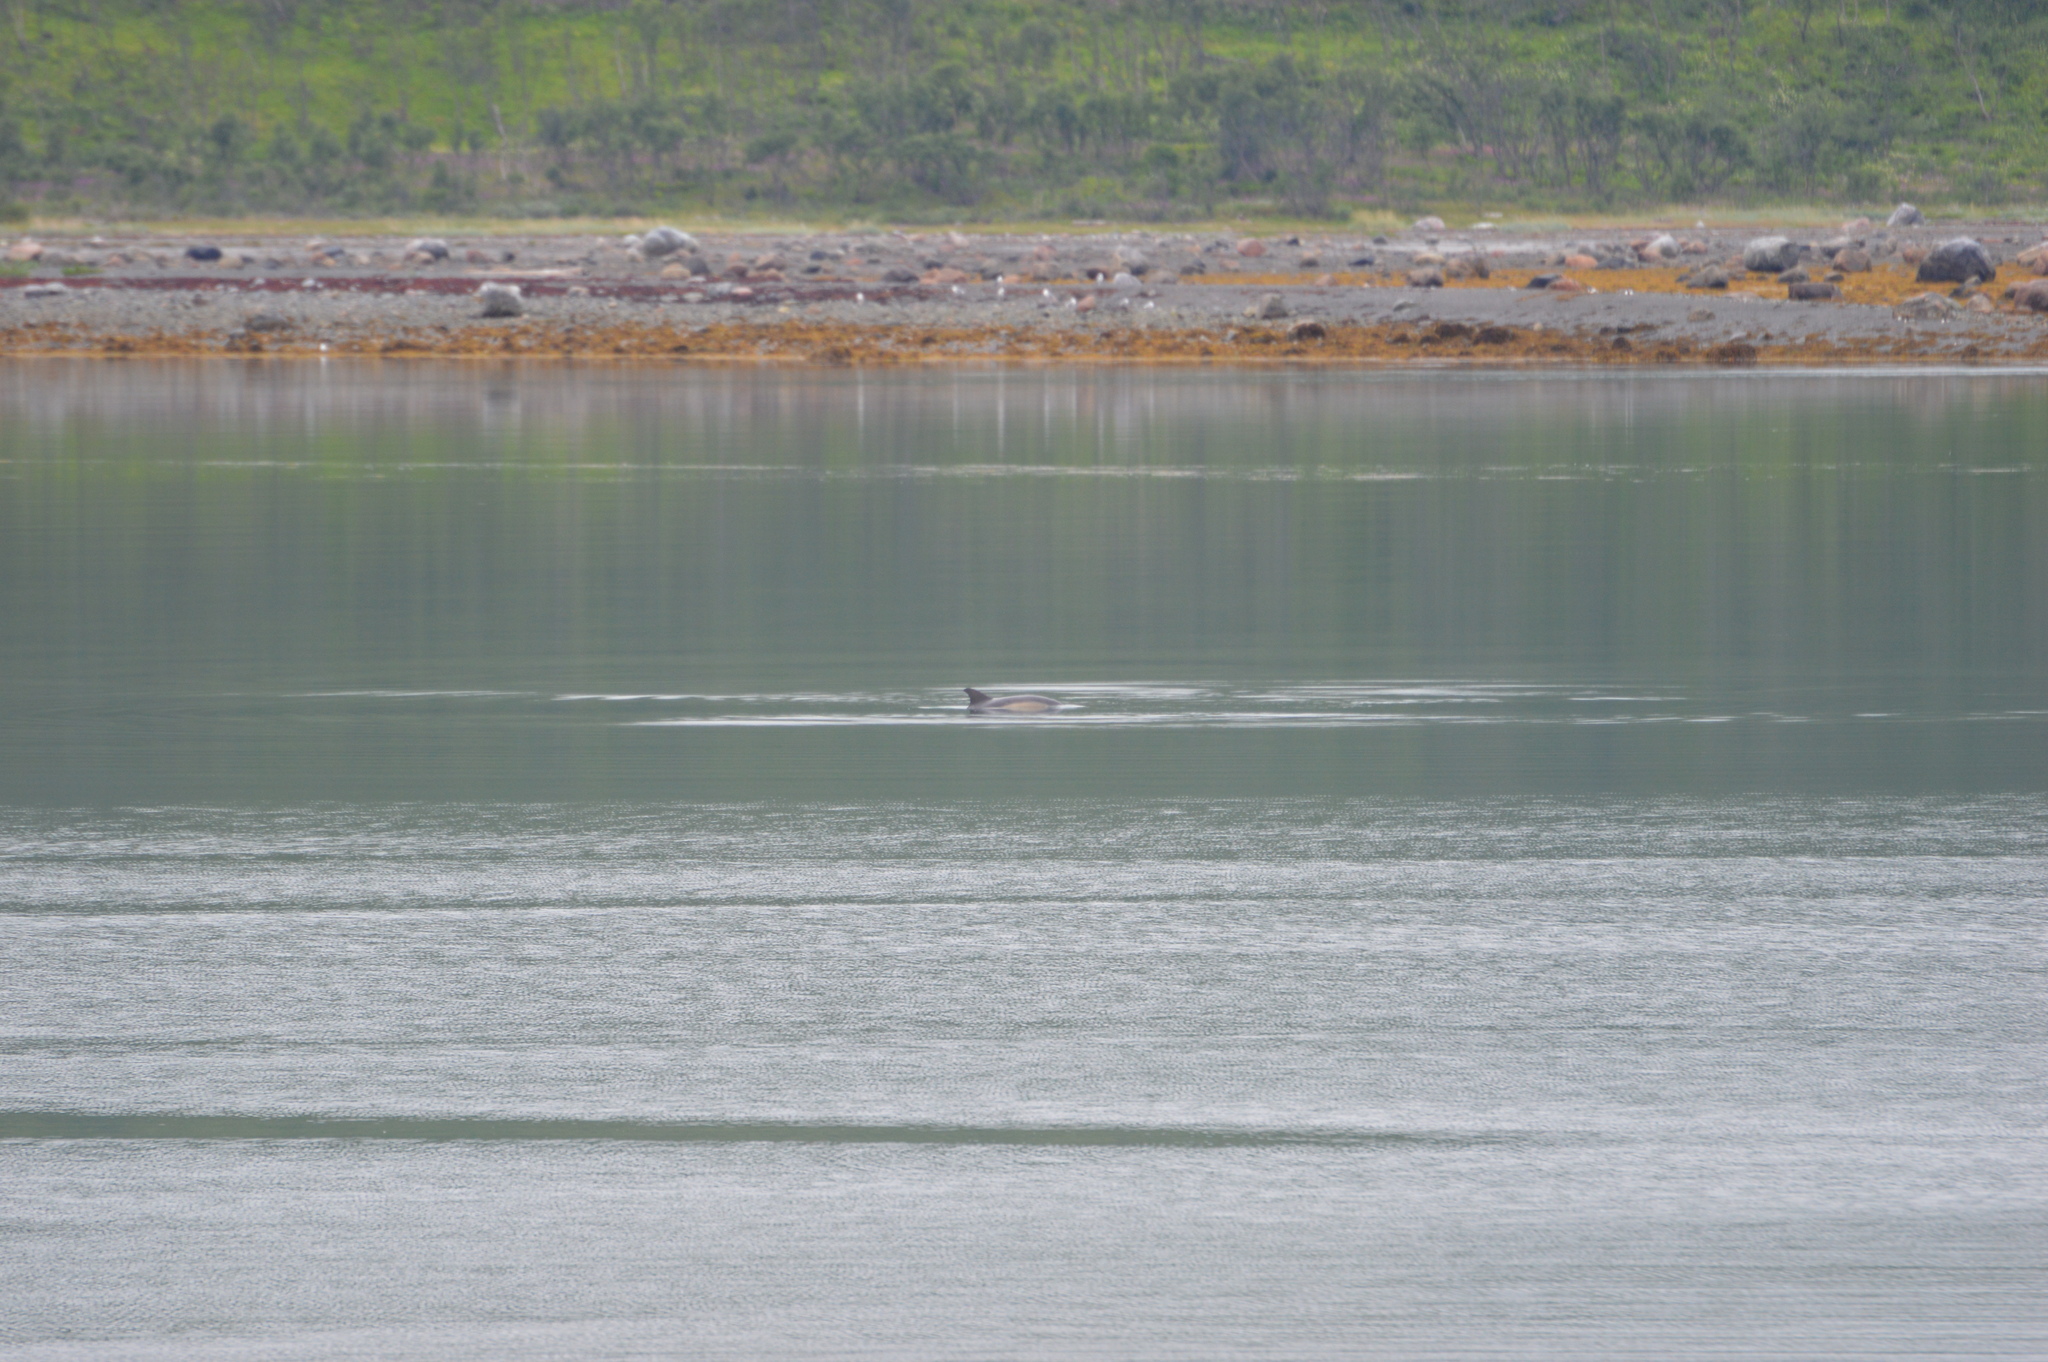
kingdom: Animalia
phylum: Chordata
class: Mammalia
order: Cetacea
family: Delphinidae
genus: Delphinus
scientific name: Delphinus delphis
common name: Common dolphin
